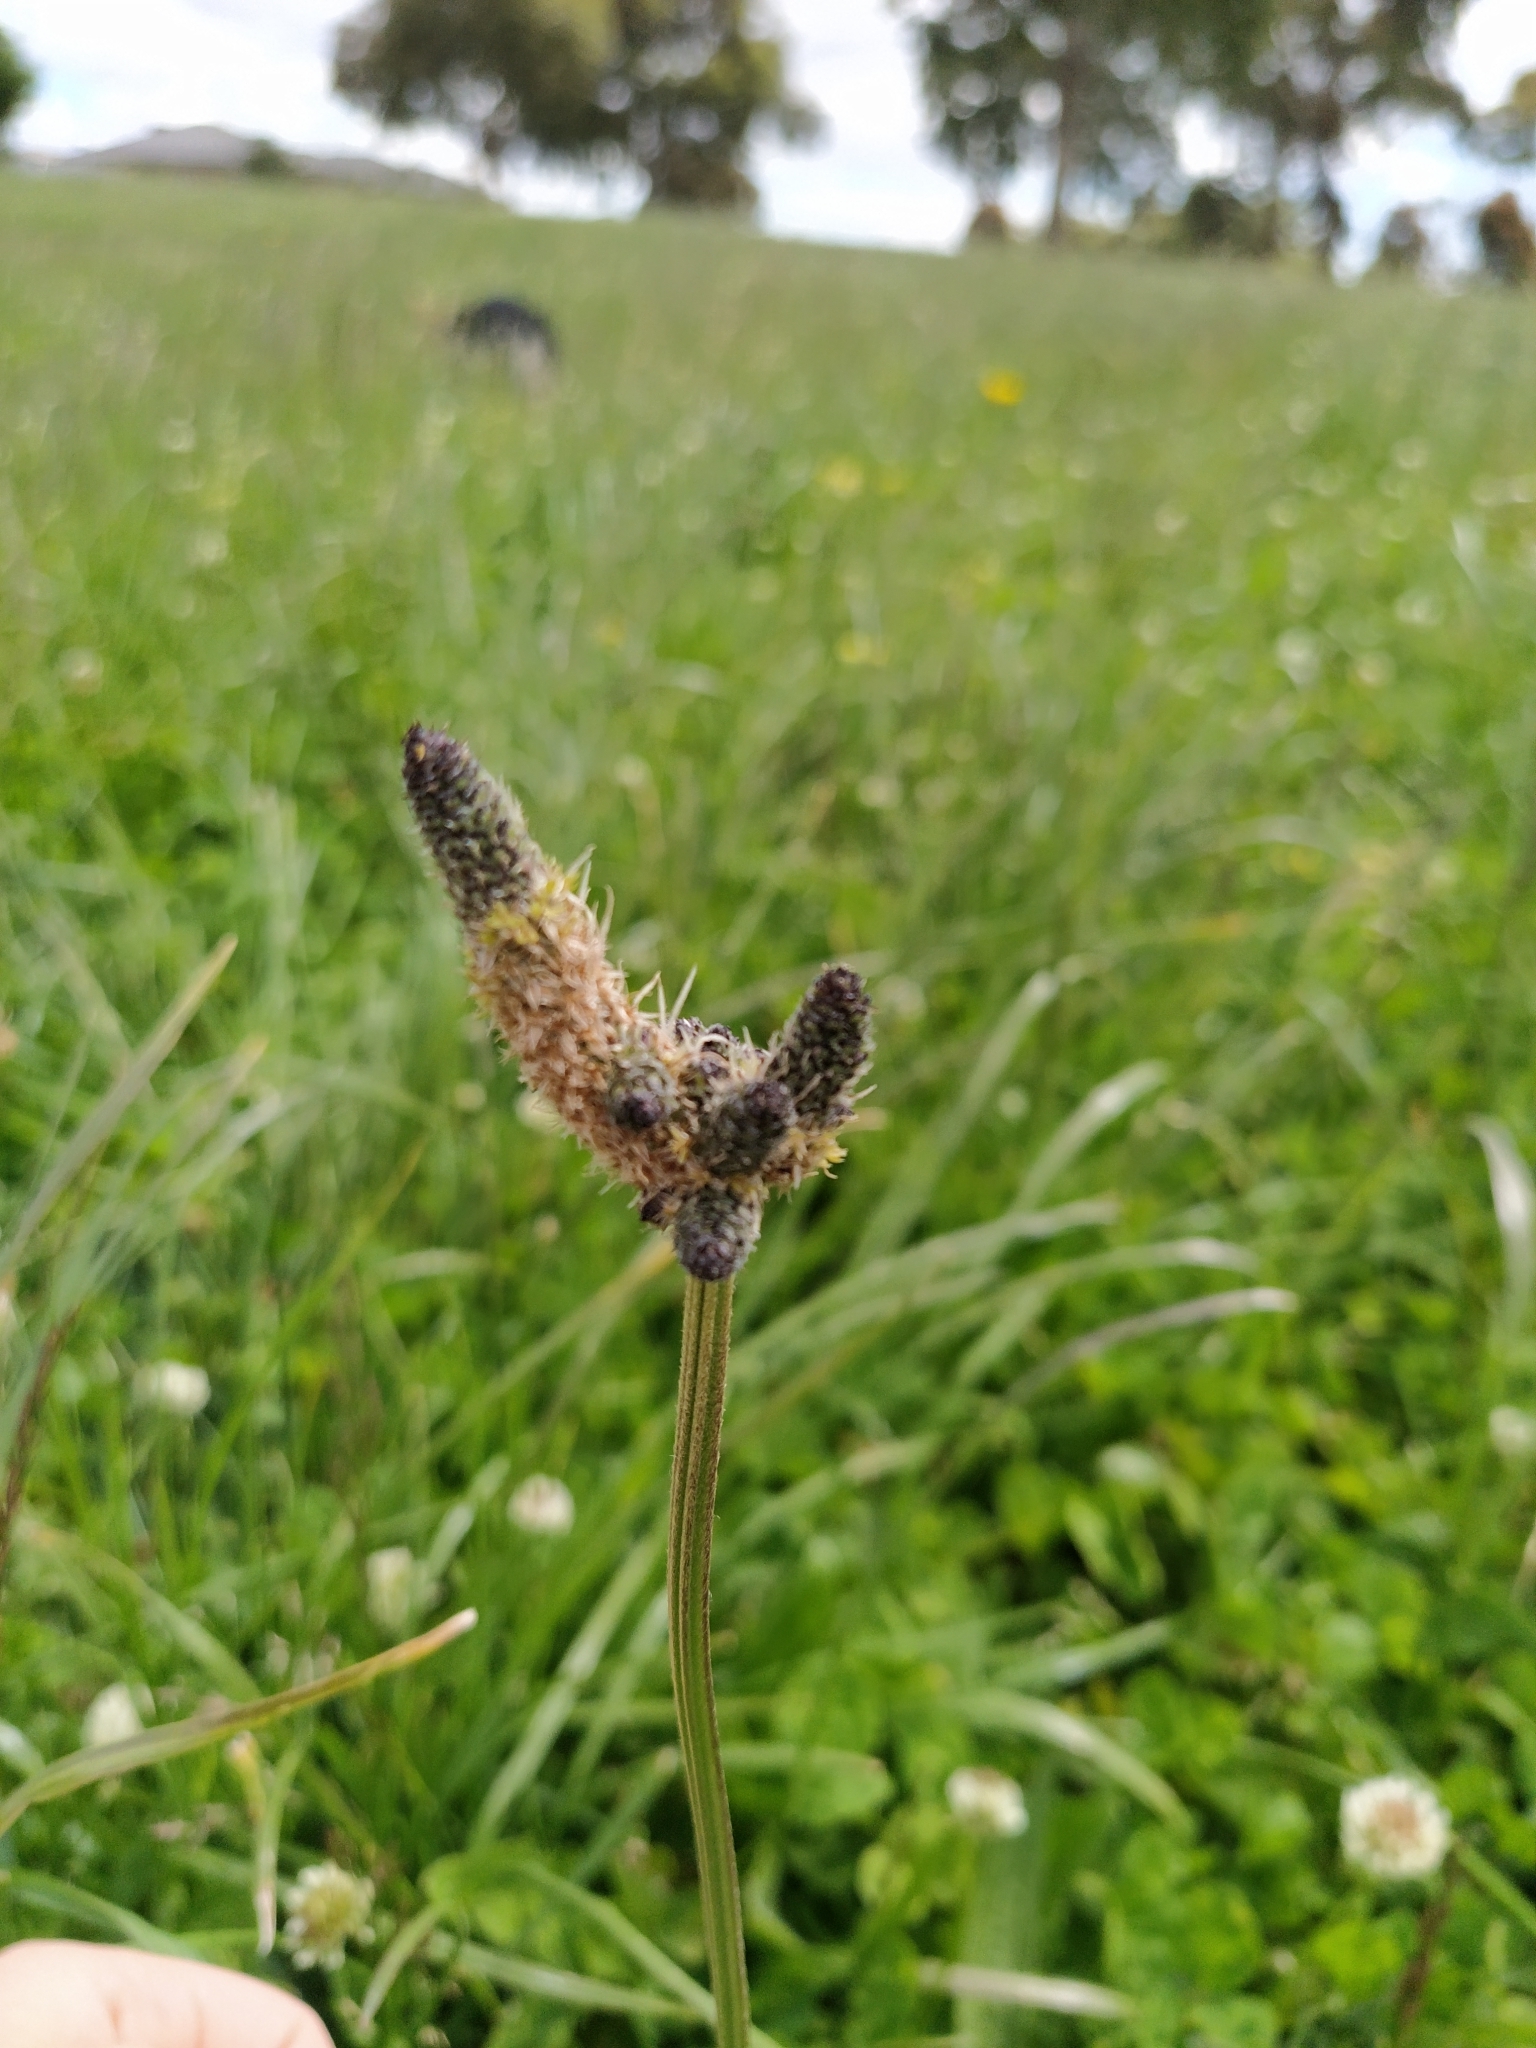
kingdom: Plantae
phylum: Tracheophyta
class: Magnoliopsida
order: Lamiales
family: Plantaginaceae
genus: Plantago
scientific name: Plantago lanceolata
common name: Ribwort plantain
